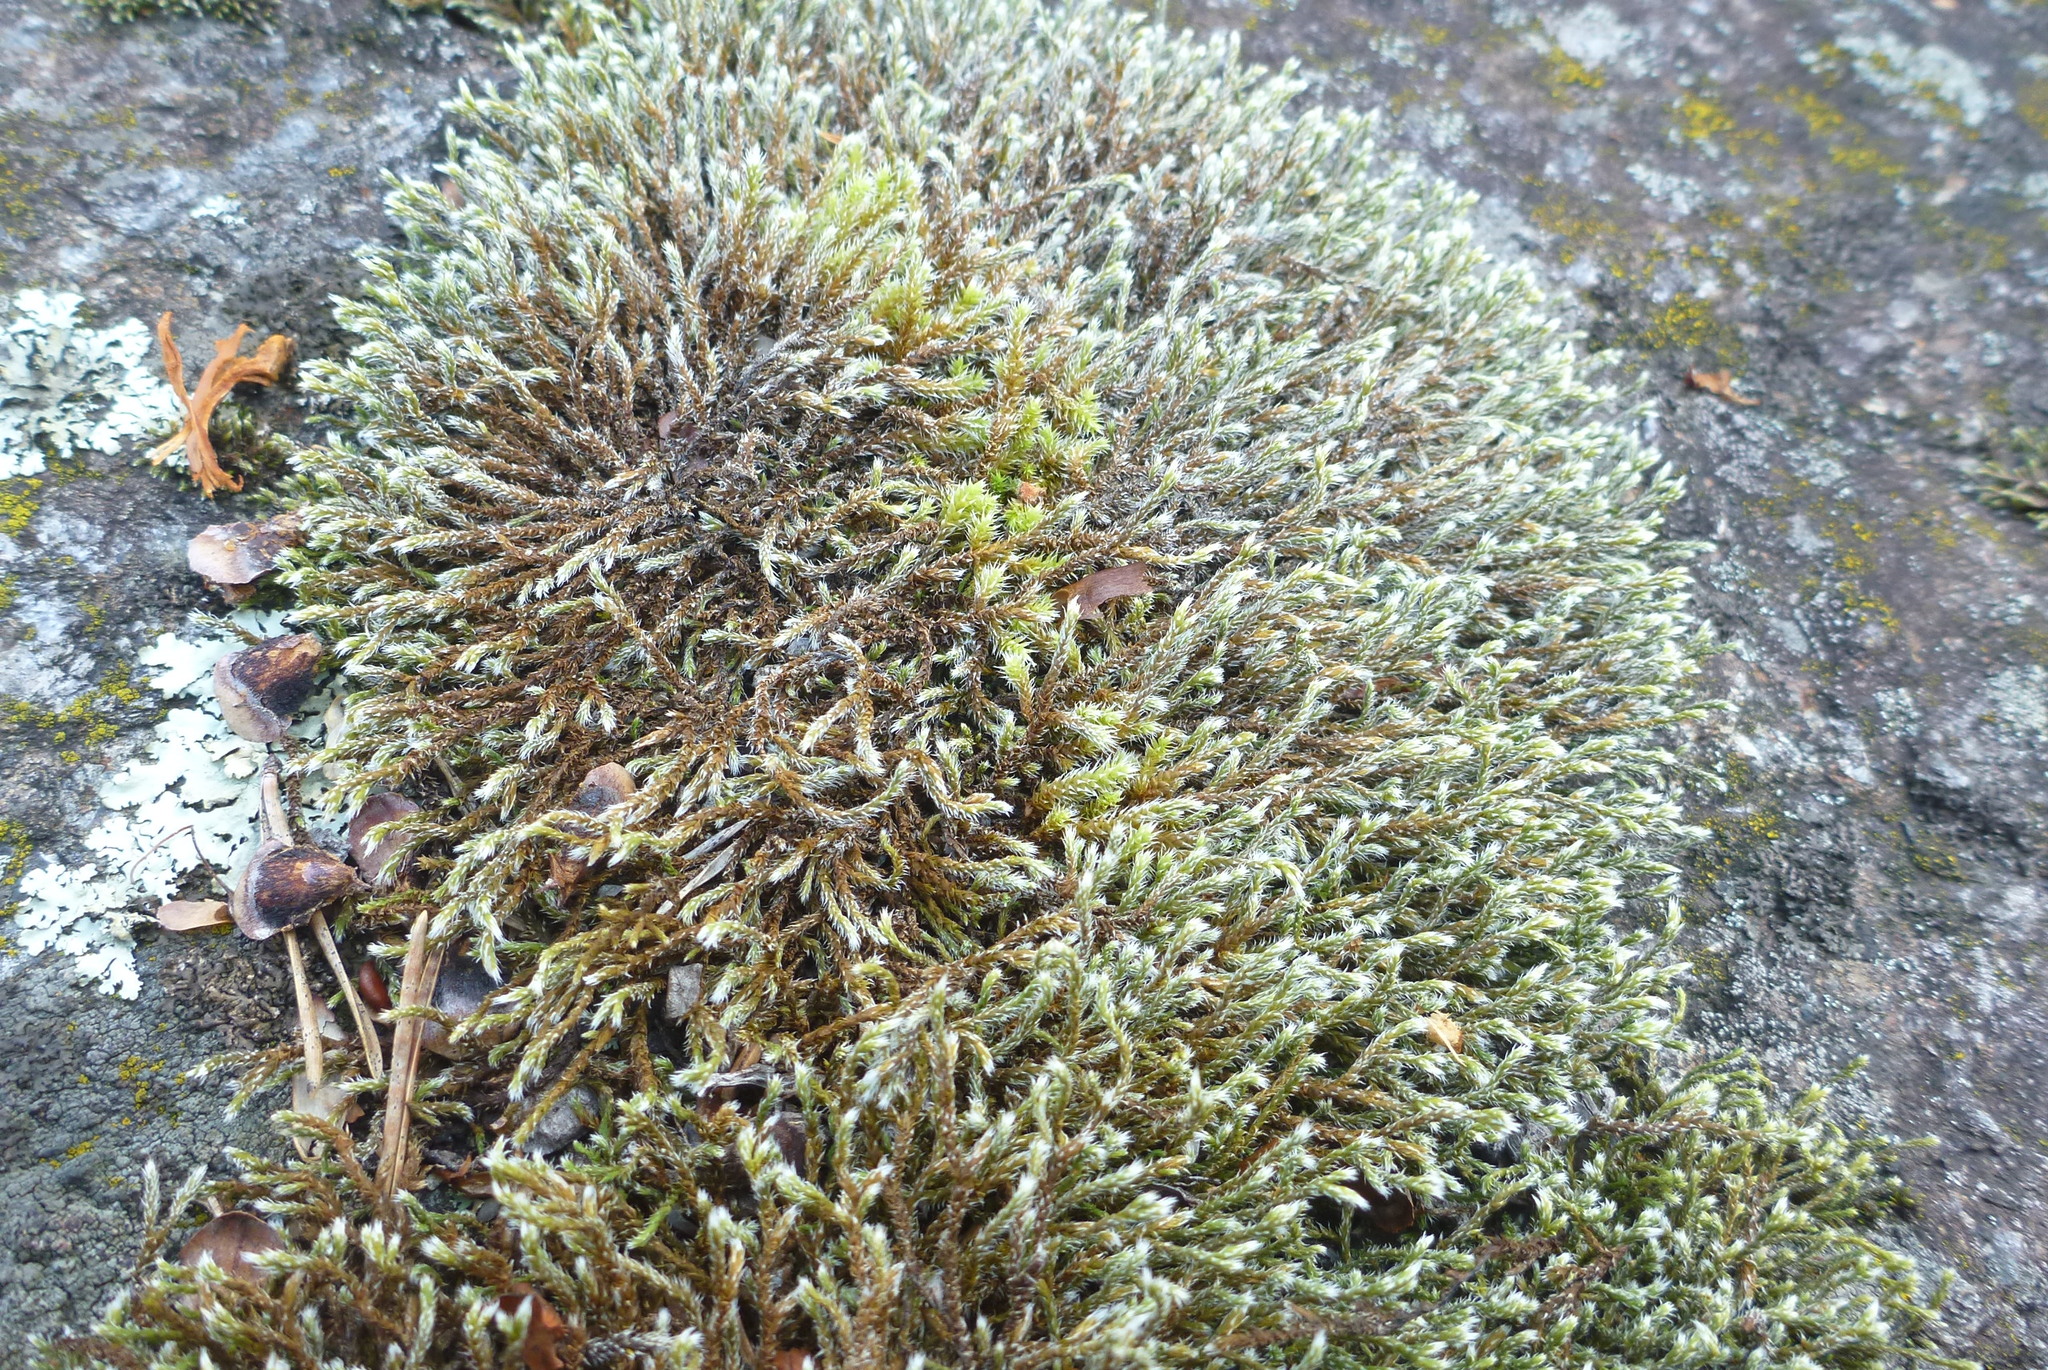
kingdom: Plantae
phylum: Tracheophyta
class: Lycopodiopsida
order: Selaginellales
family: Selaginellaceae
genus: Selaginella
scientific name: Selaginella rupestris
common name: Dwarf spikemoss
